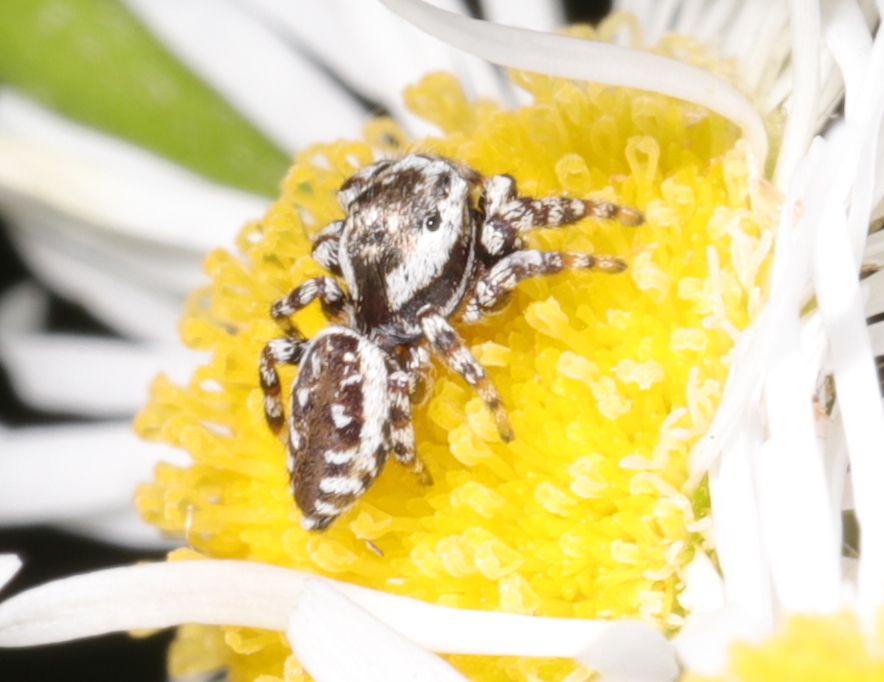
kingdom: Animalia
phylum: Arthropoda
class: Arachnida
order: Araneae
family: Salticidae
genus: Pelegrina
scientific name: Pelegrina galathea
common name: Jumping spiders
